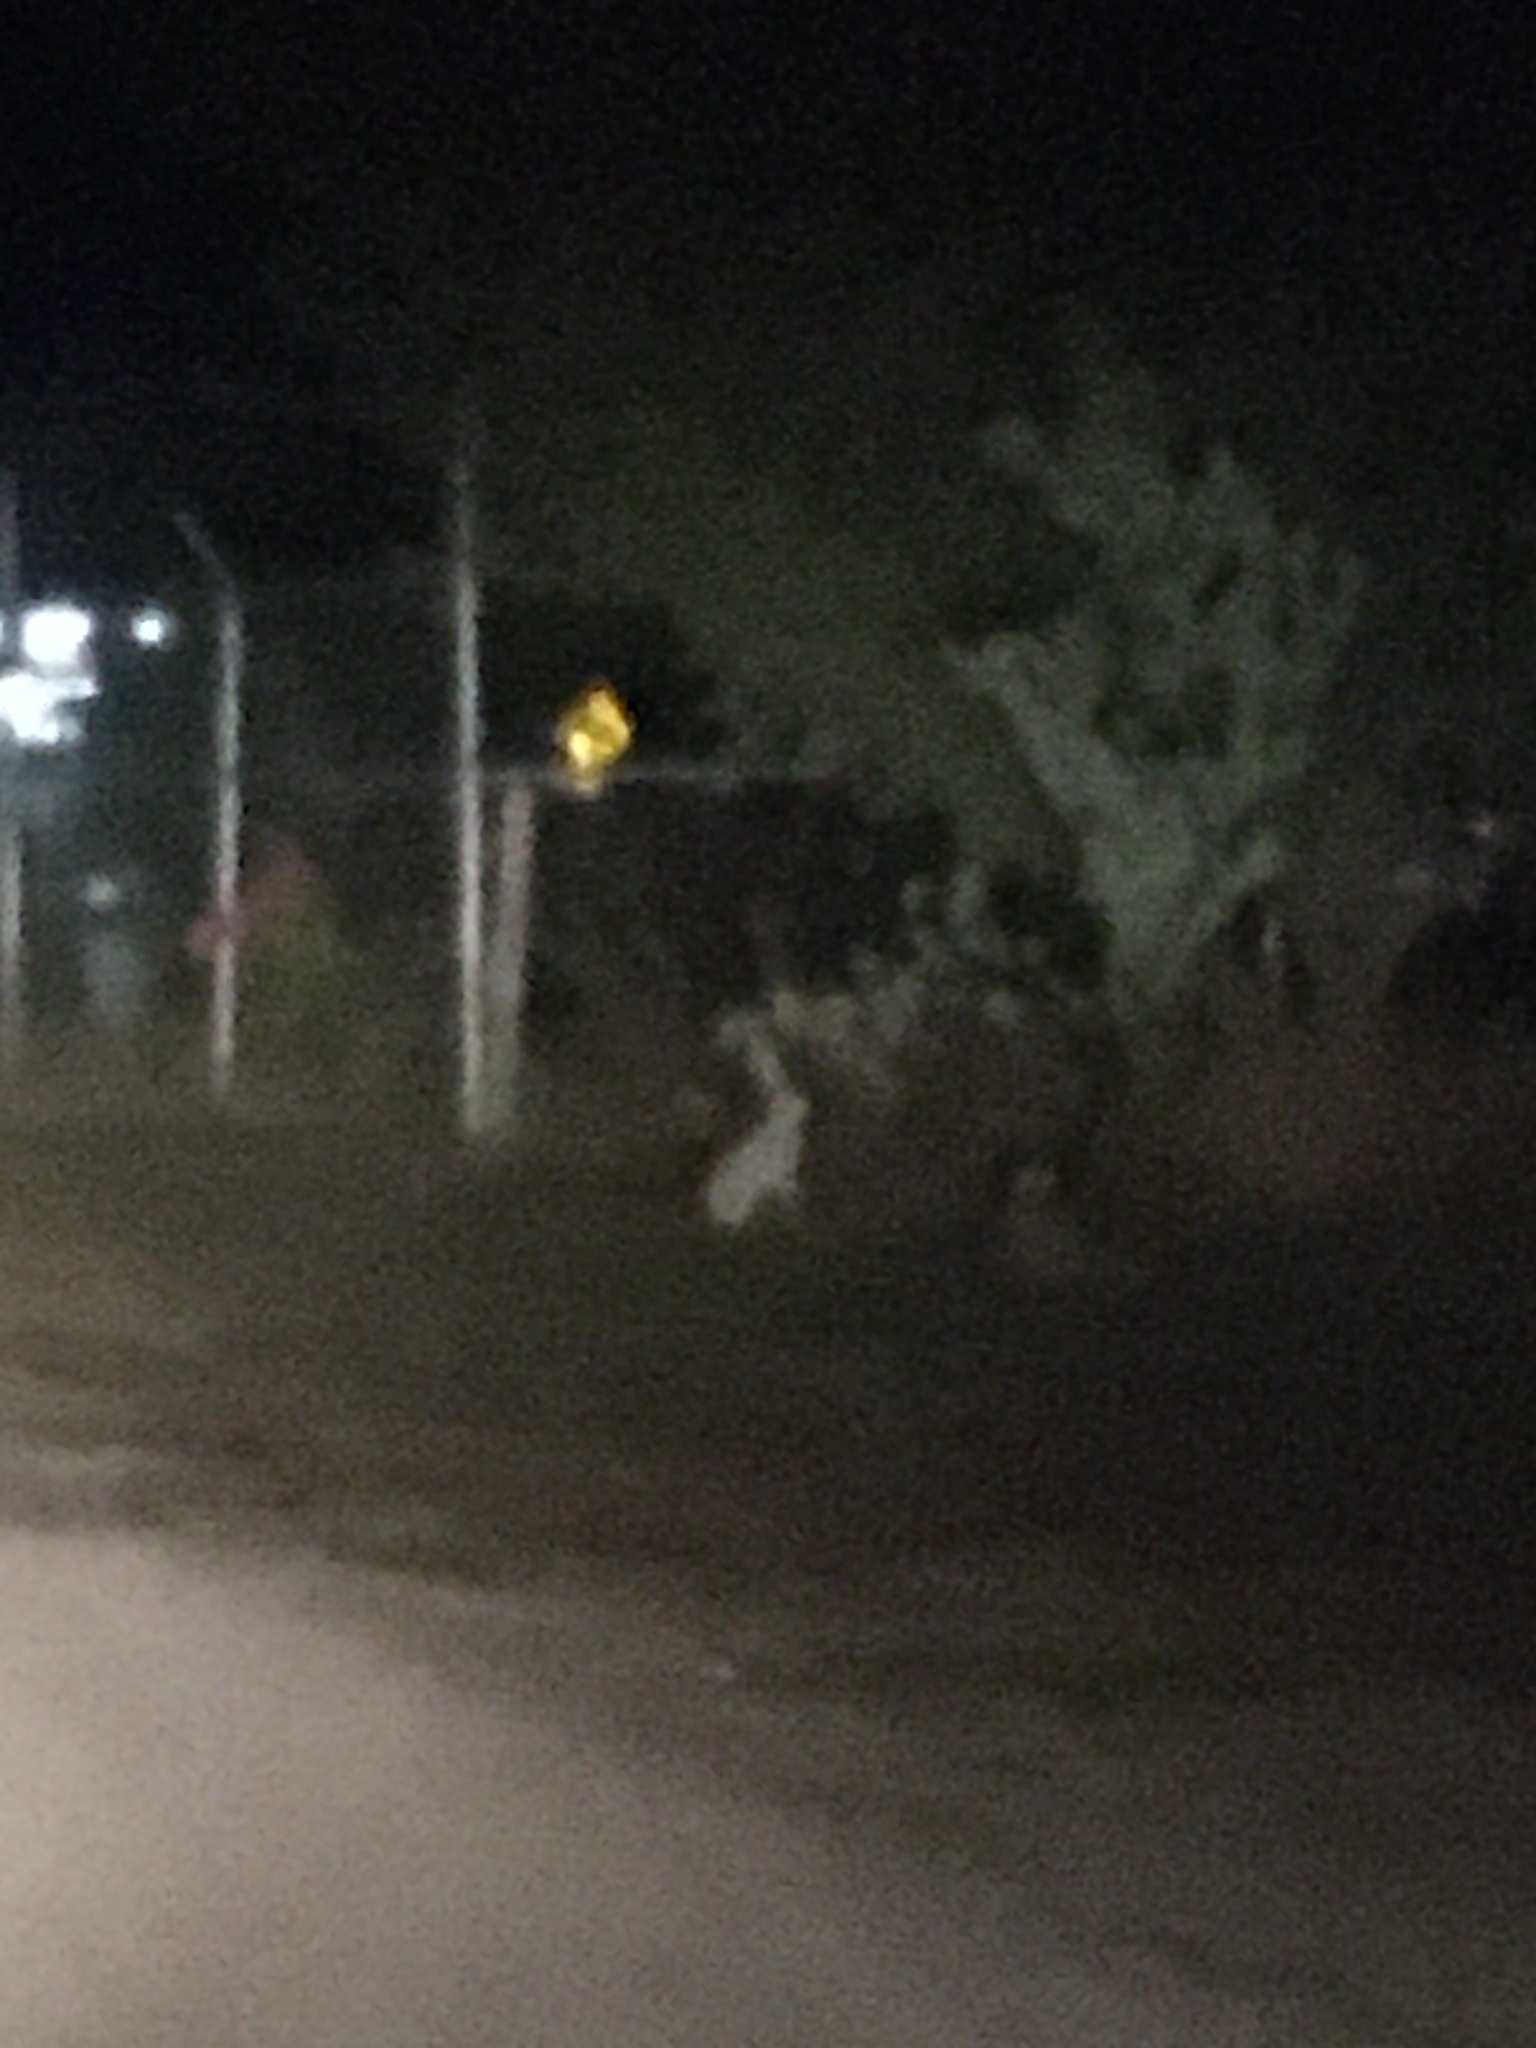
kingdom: Animalia
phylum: Chordata
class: Mammalia
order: Lagomorpha
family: Leporidae
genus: Lepus
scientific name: Lepus alleni
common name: Antelope jackrabbit
